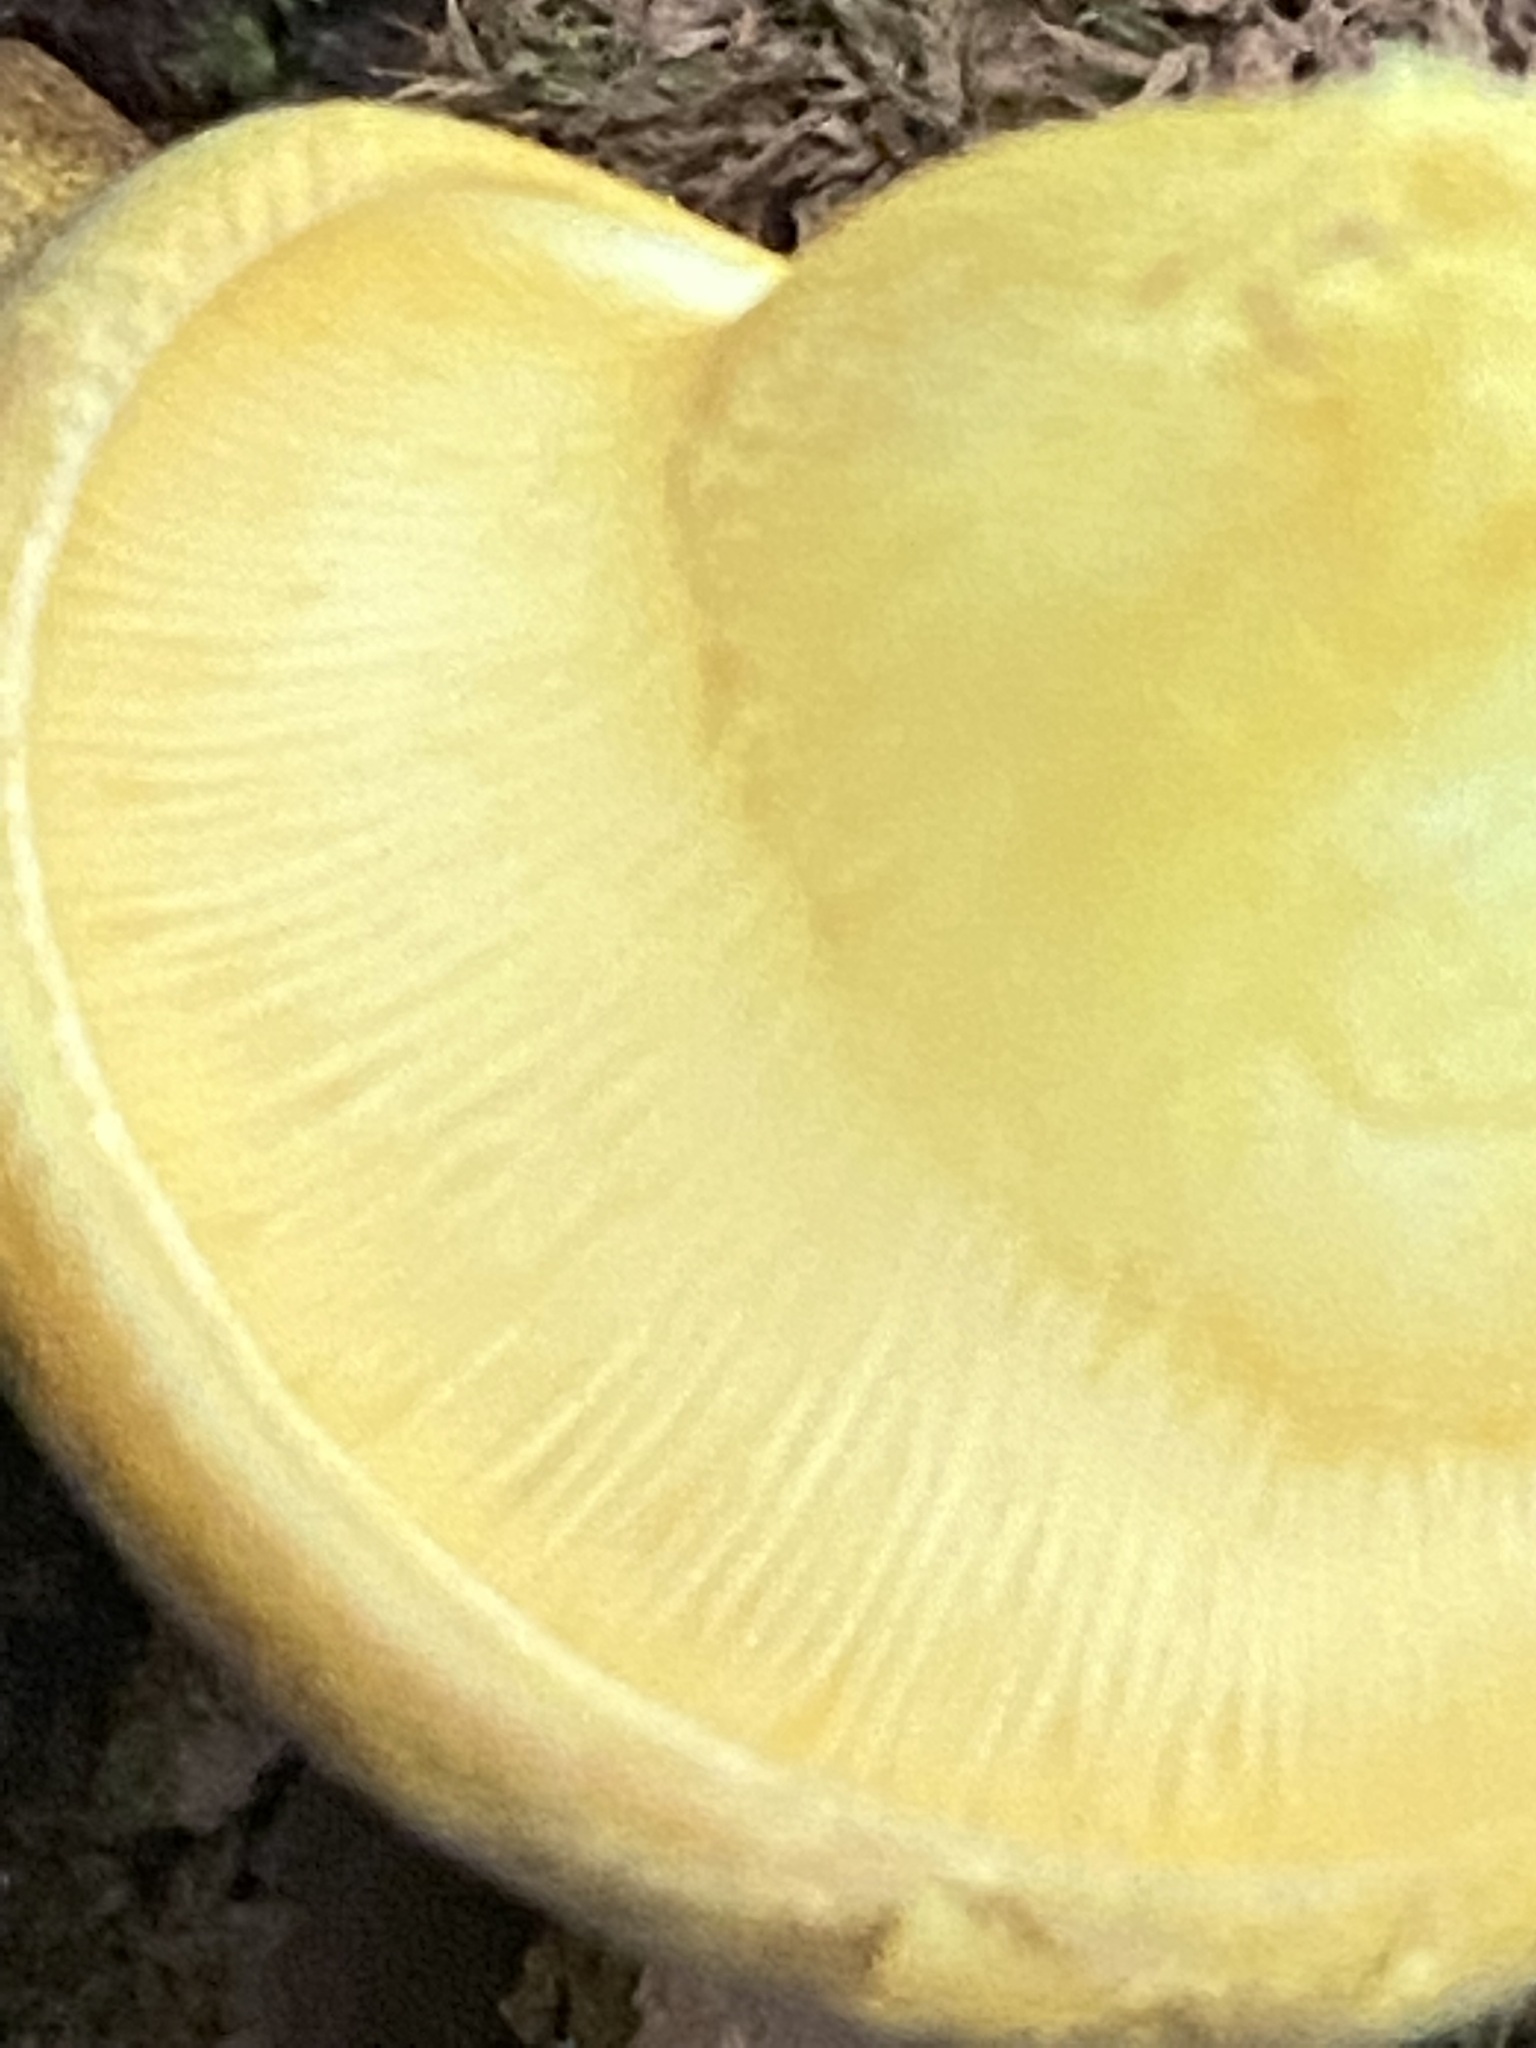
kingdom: Fungi
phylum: Basidiomycota
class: Agaricomycetes
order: Agaricales
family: Sarcomyxaceae
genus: Sarcomyxa
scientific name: Sarcomyxa serotina
